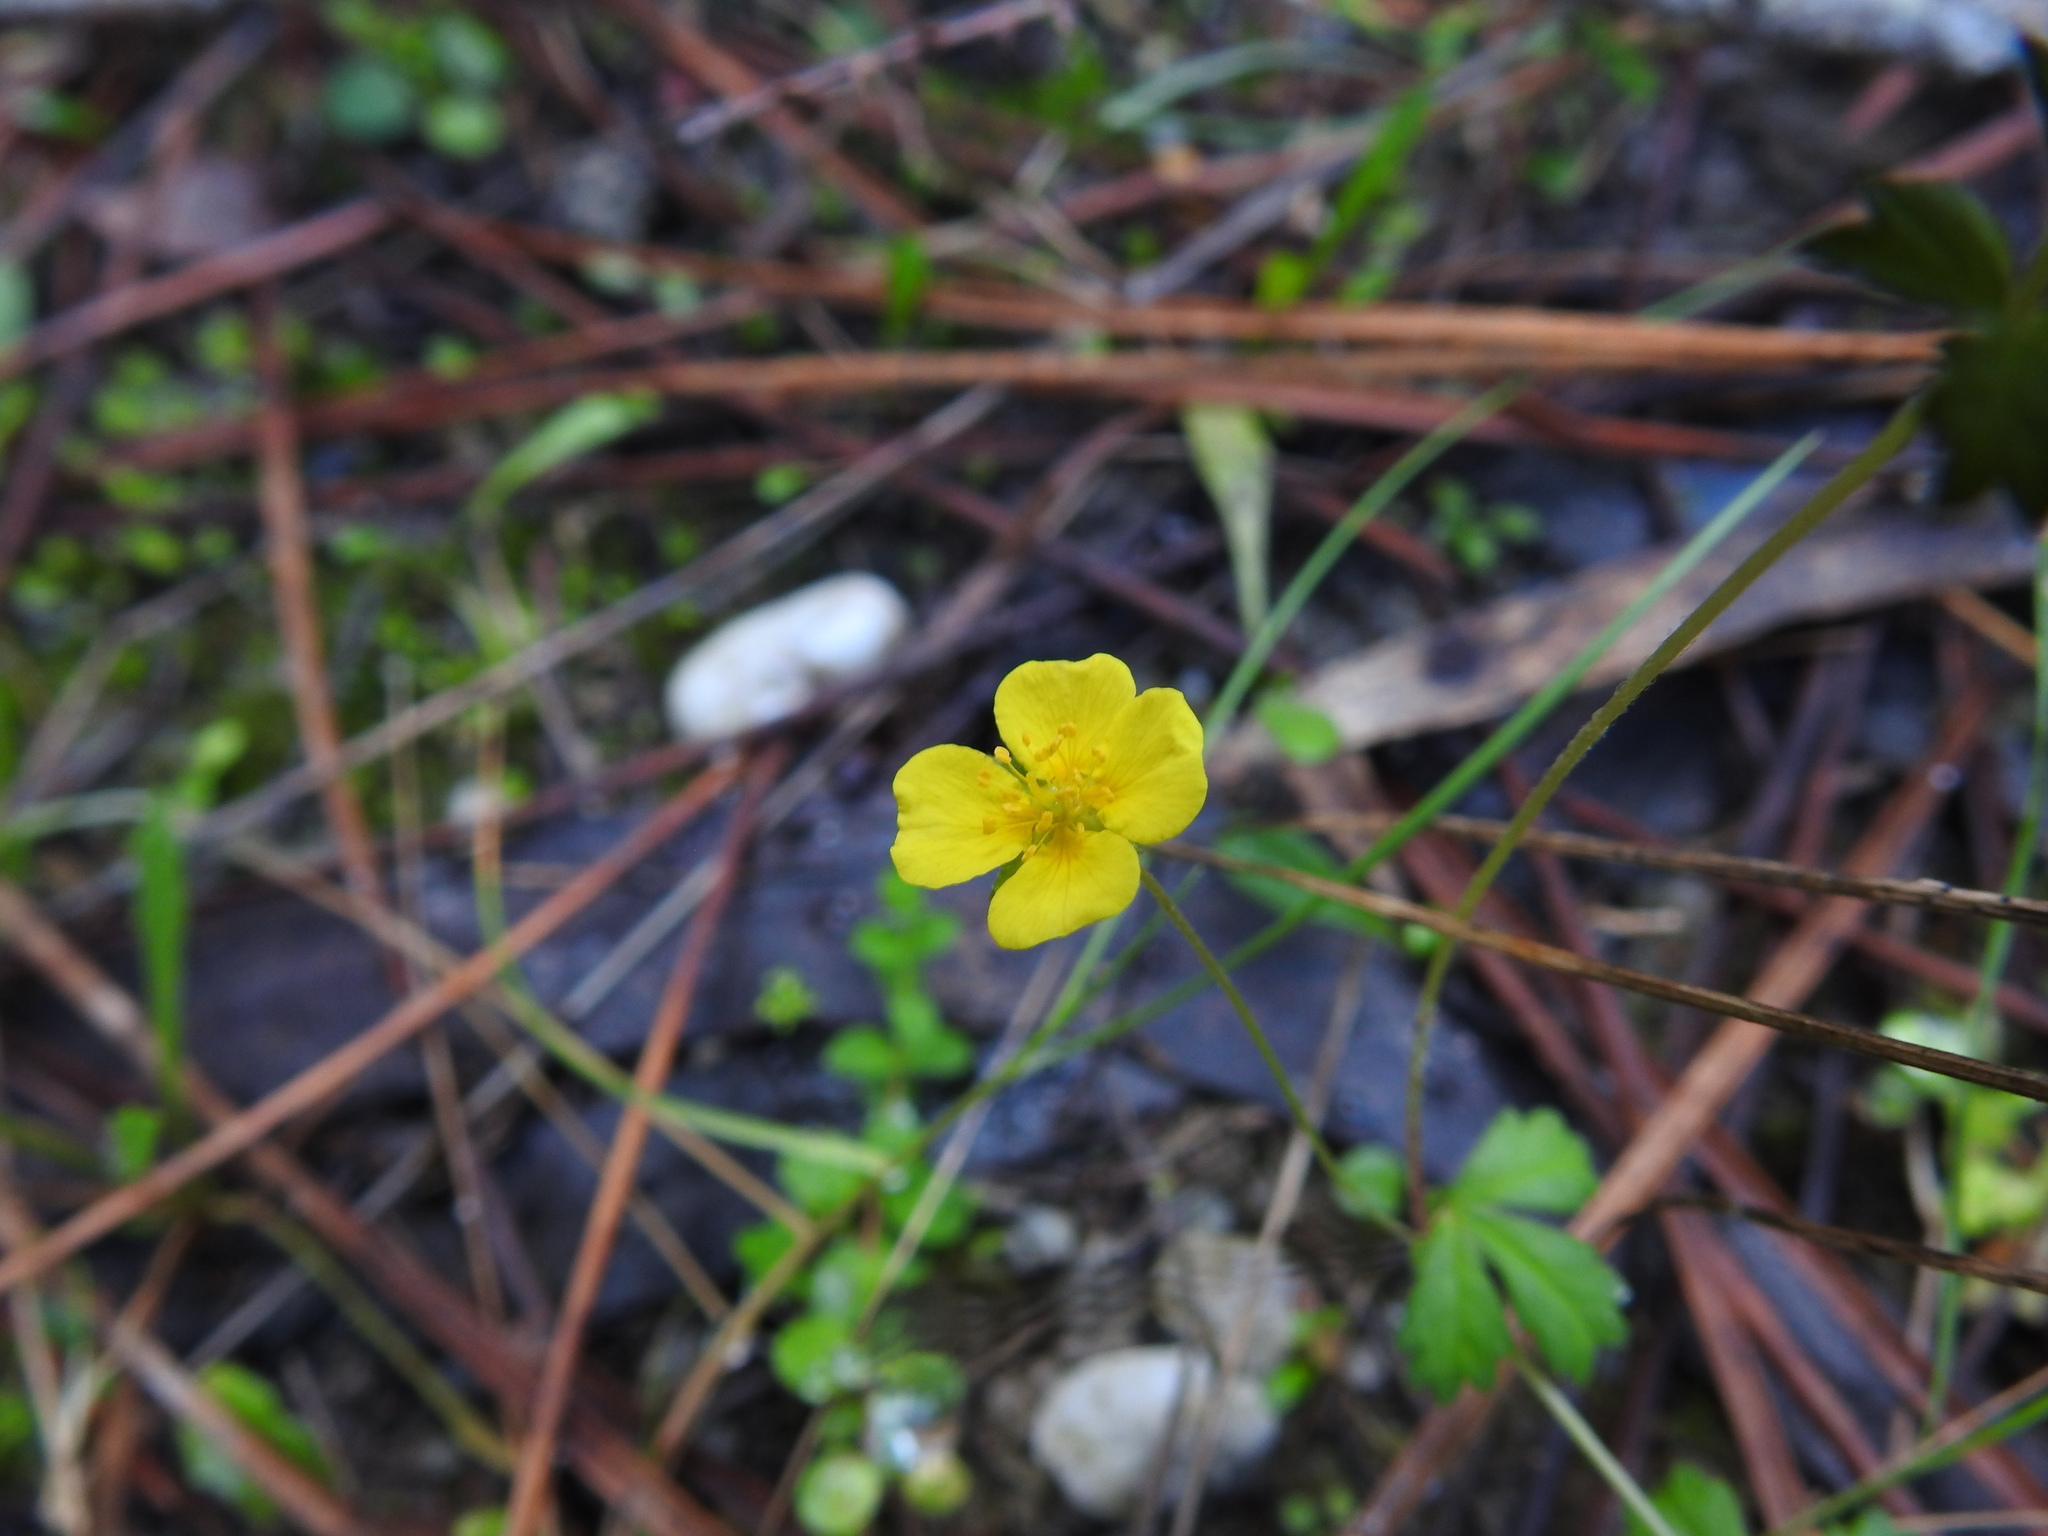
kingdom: Plantae
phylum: Tracheophyta
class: Magnoliopsida
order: Rosales
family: Rosaceae
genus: Potentilla
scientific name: Potentilla erecta
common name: Tormentil
